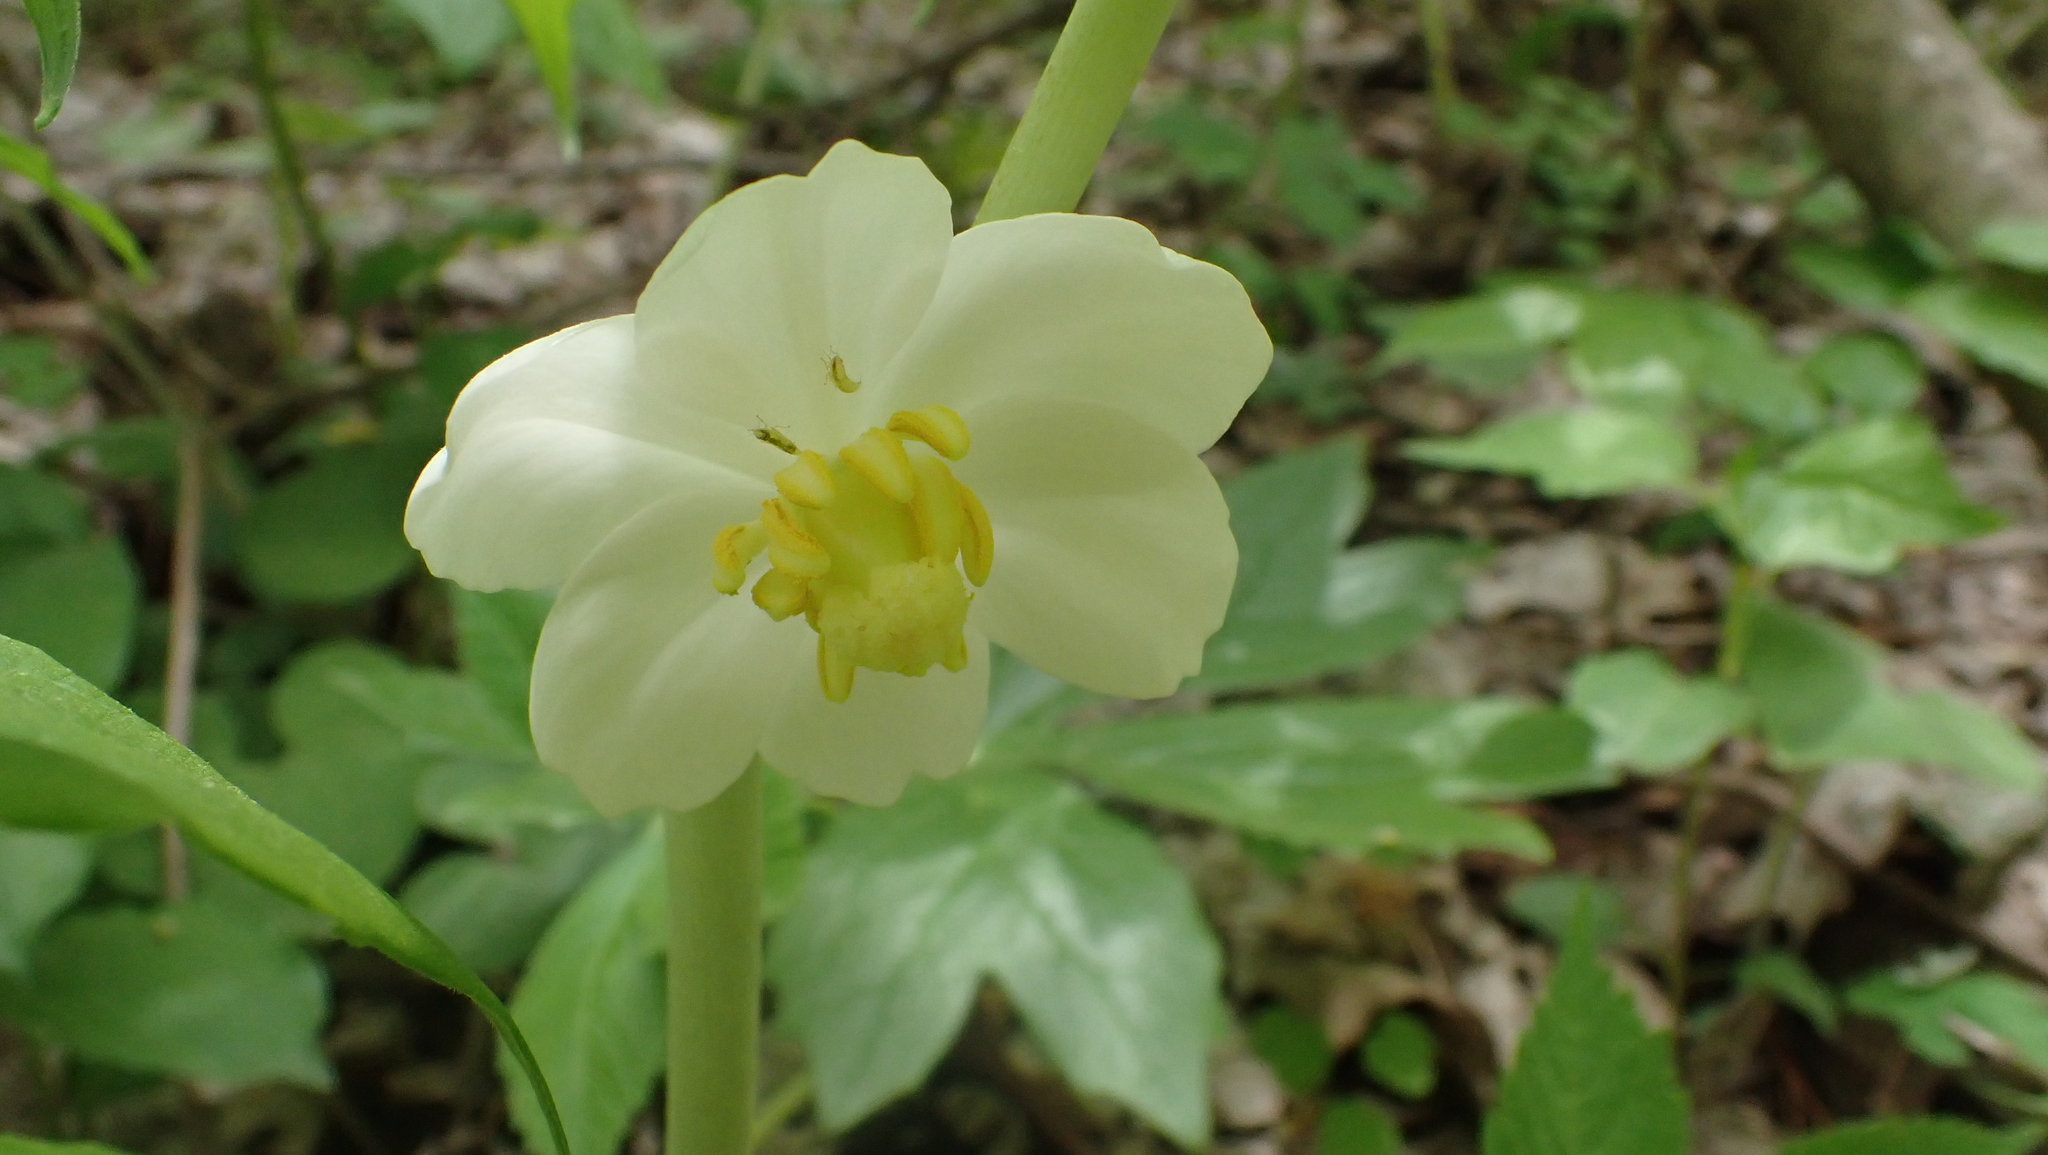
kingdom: Plantae
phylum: Tracheophyta
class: Magnoliopsida
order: Ranunculales
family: Berberidaceae
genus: Podophyllum
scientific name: Podophyllum peltatum
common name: Wild mandrake
